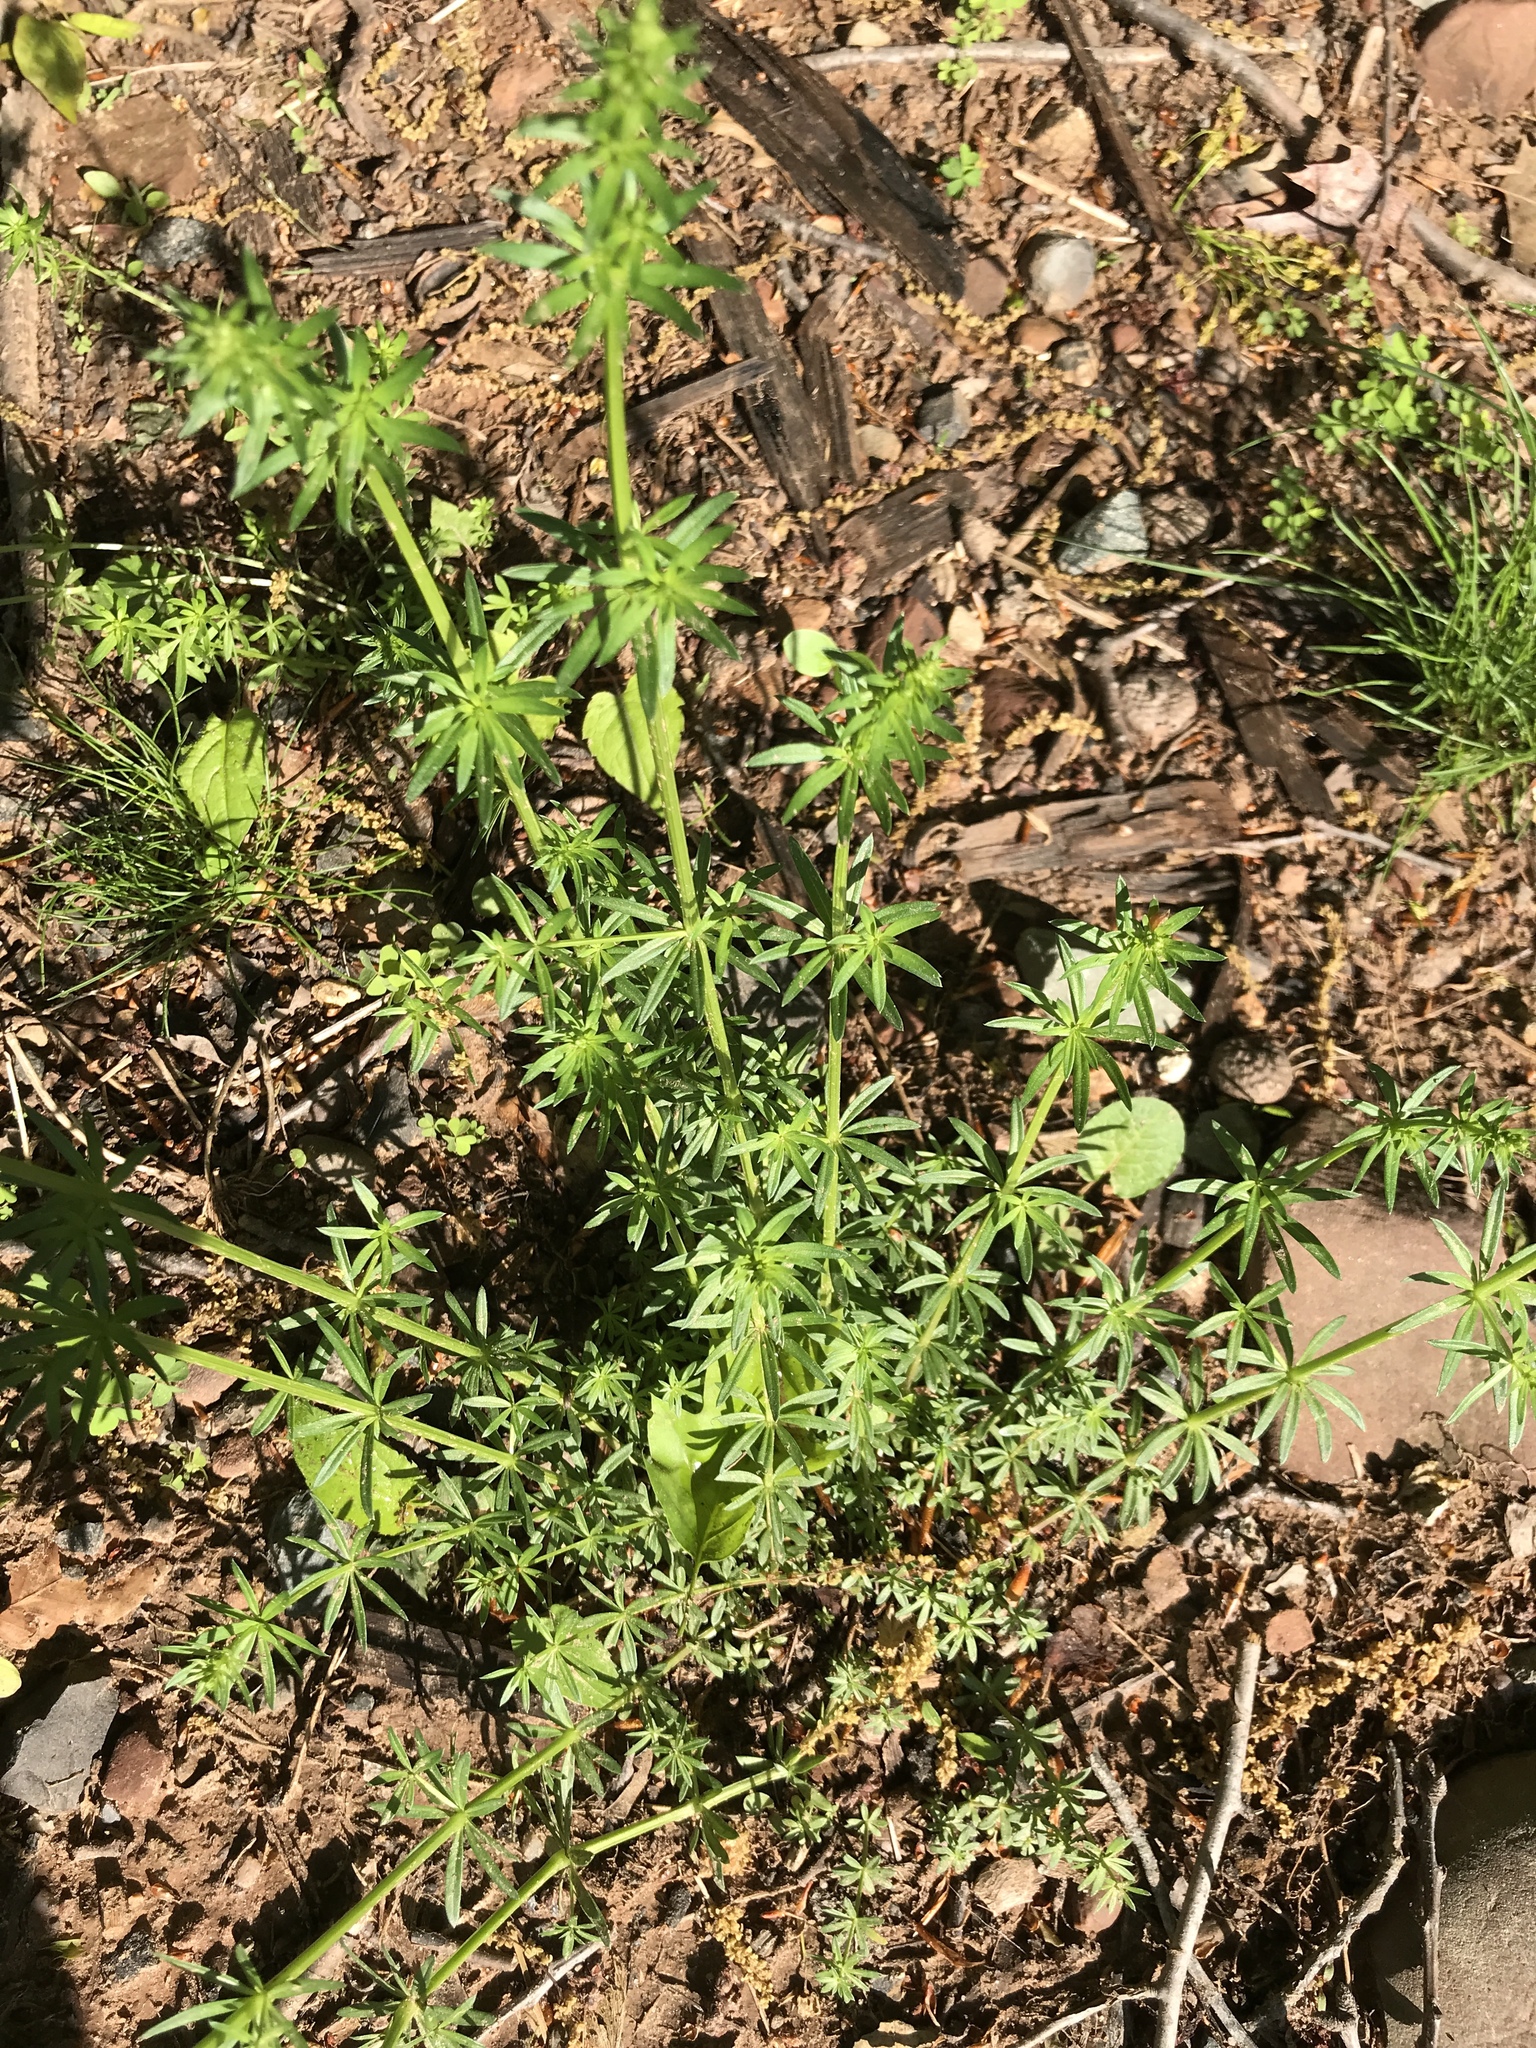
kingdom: Plantae
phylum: Tracheophyta
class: Magnoliopsida
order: Gentianales
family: Rubiaceae
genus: Galium
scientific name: Galium mollugo
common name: Hedge bedstraw
